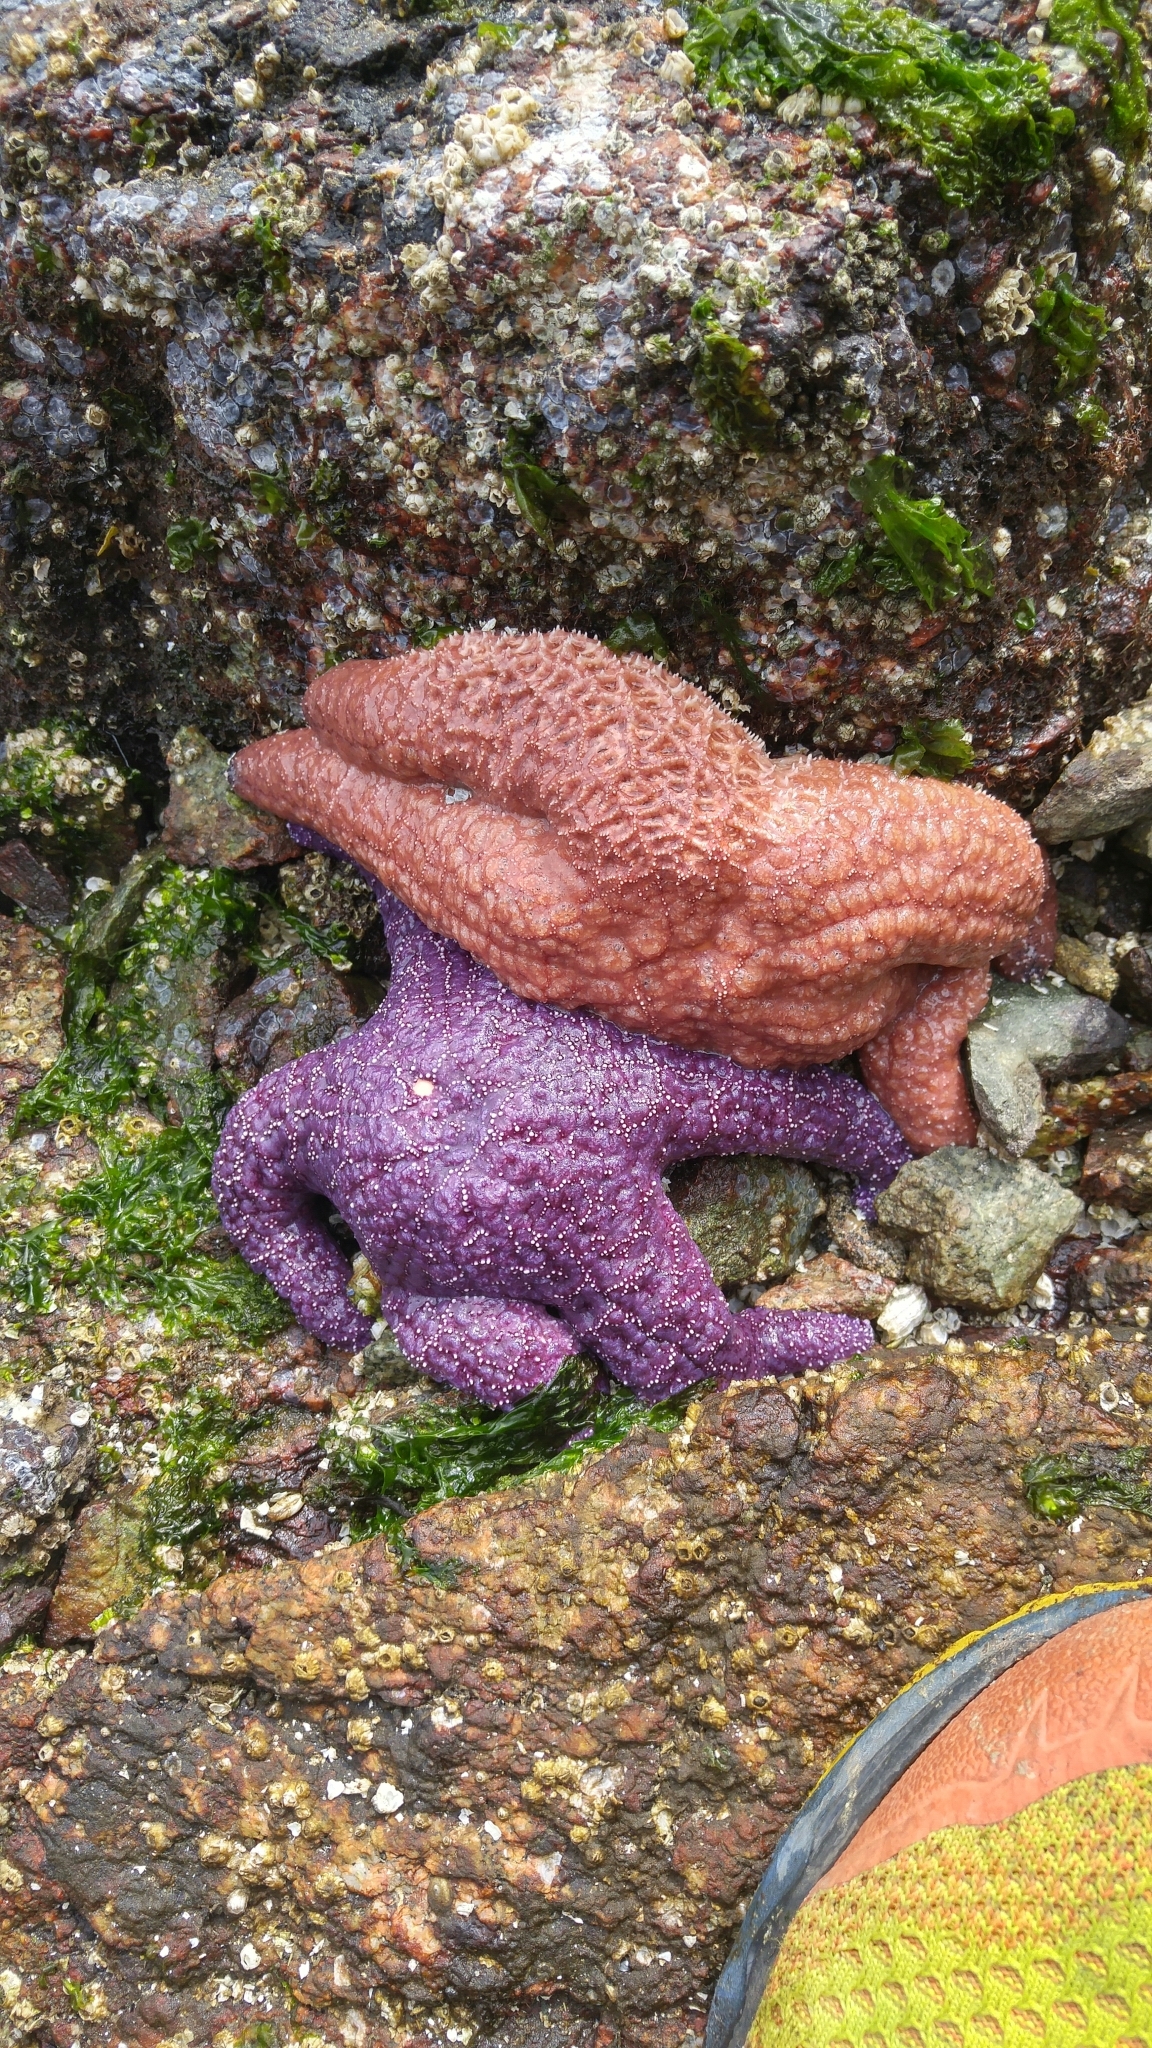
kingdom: Animalia
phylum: Echinodermata
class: Asteroidea
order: Forcipulatida
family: Asteriidae
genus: Pisaster
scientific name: Pisaster ochraceus
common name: Ochre stars
